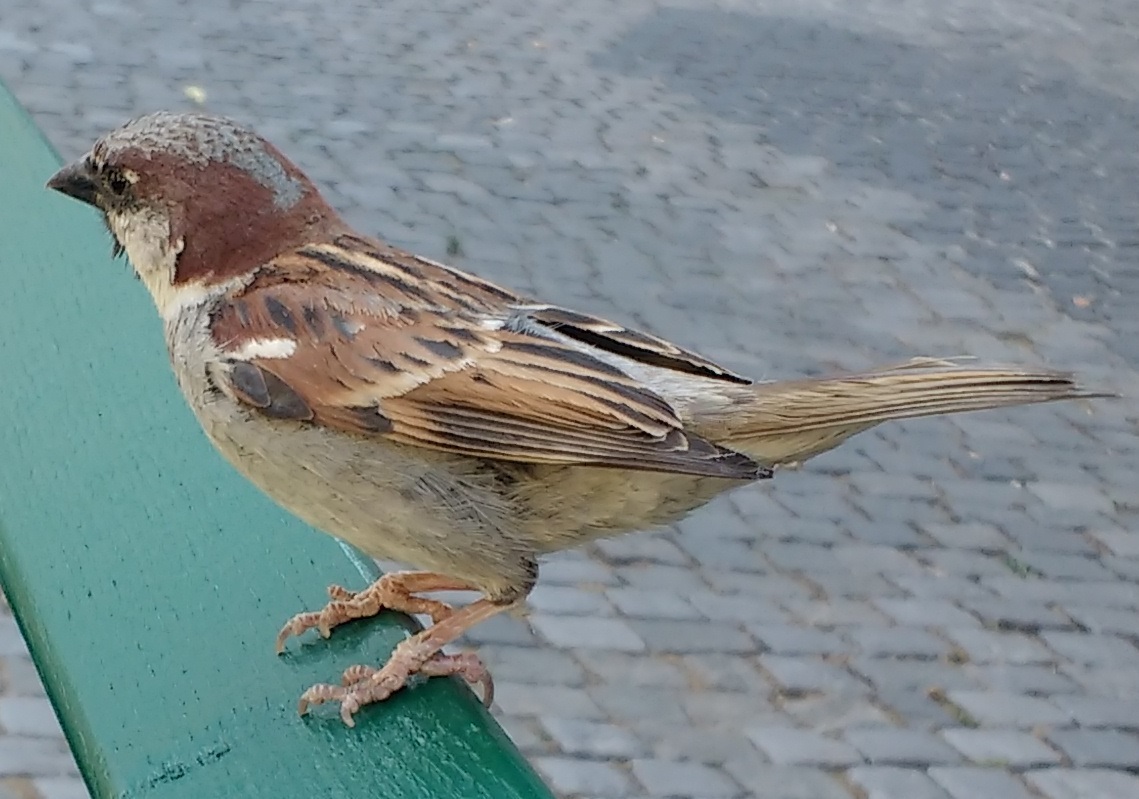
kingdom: Animalia
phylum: Chordata
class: Aves
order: Passeriformes
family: Passeridae
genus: Passer
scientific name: Passer domesticus
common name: House sparrow
